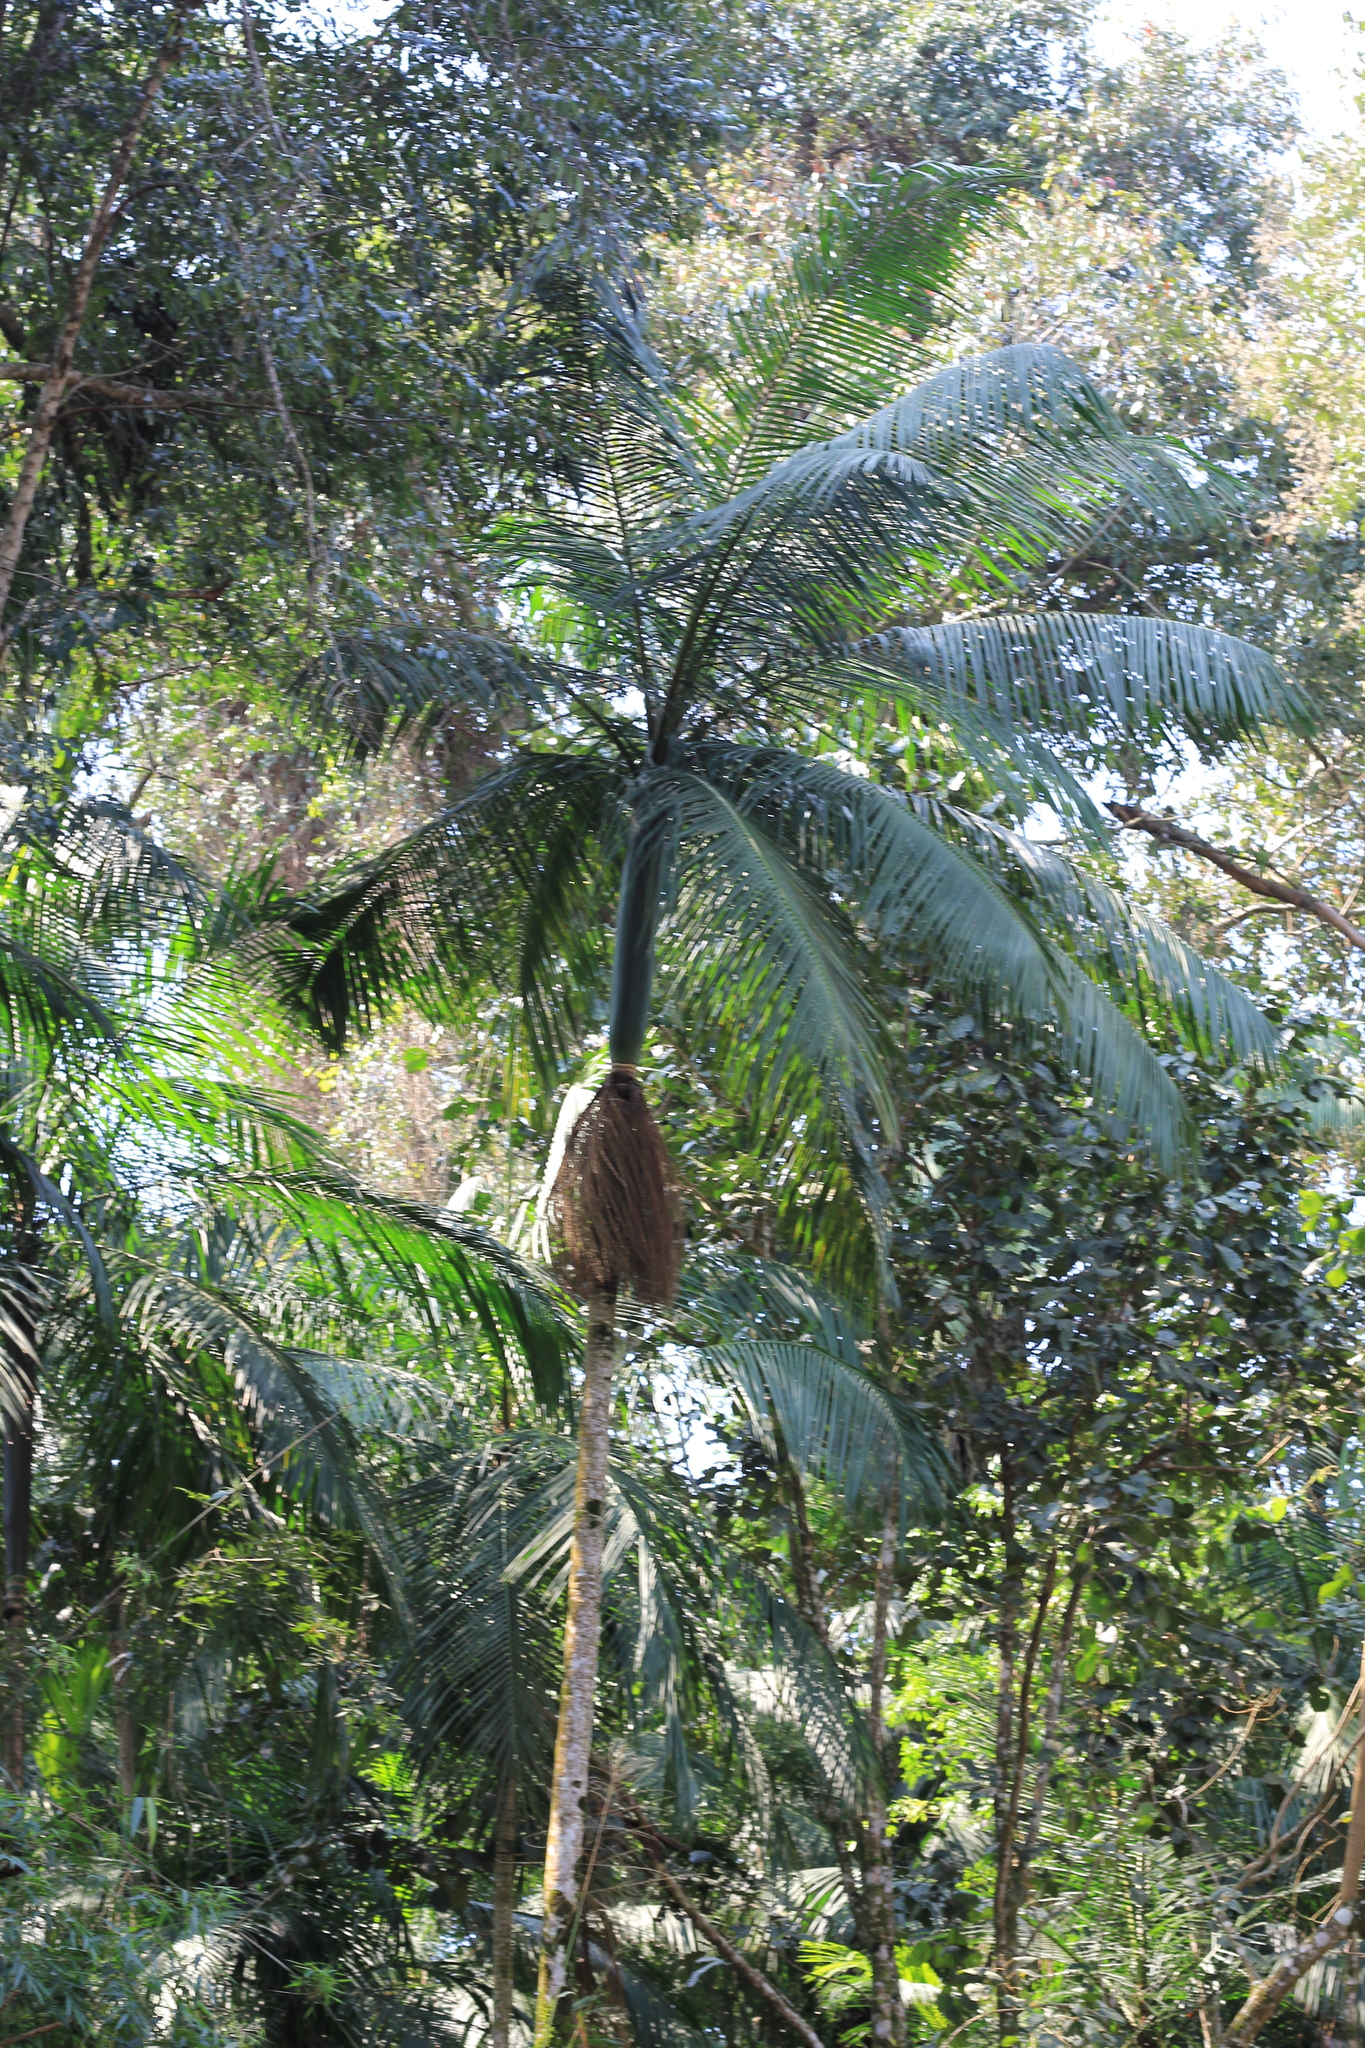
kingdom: Plantae
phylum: Tracheophyta
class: Liliopsida
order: Arecales
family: Arecaceae
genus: Euterpe
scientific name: Euterpe edulis
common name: Assai palm
